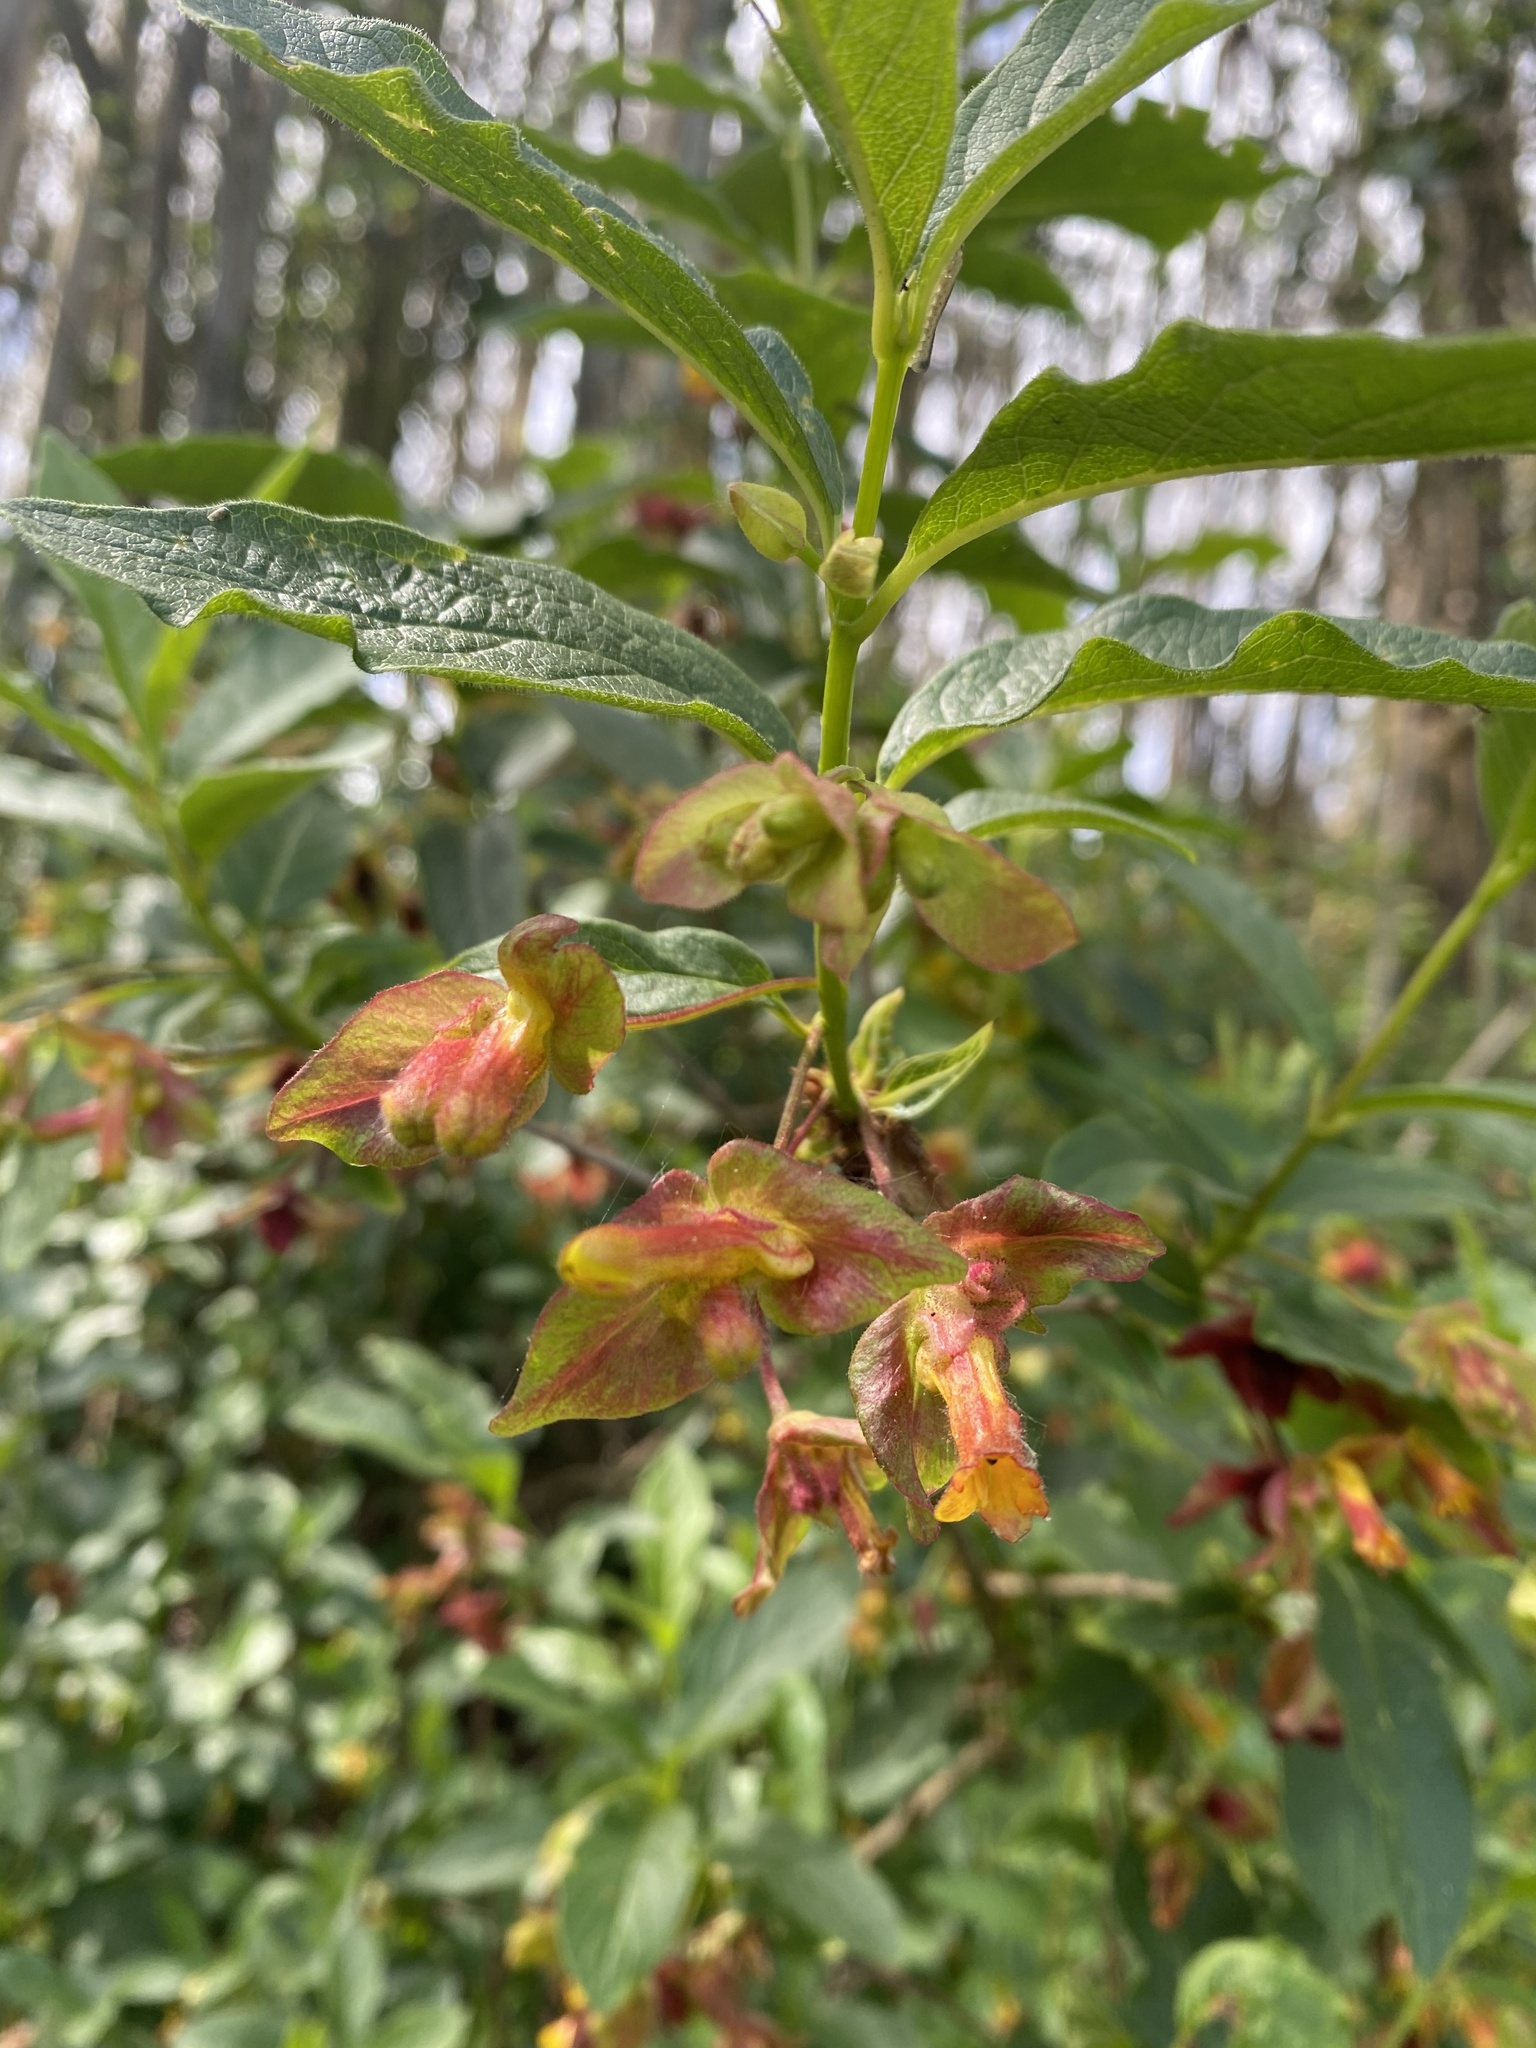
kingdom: Plantae
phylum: Tracheophyta
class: Magnoliopsida
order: Dipsacales
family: Caprifoliaceae
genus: Lonicera
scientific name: Lonicera involucrata
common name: Californian honeysuckle
